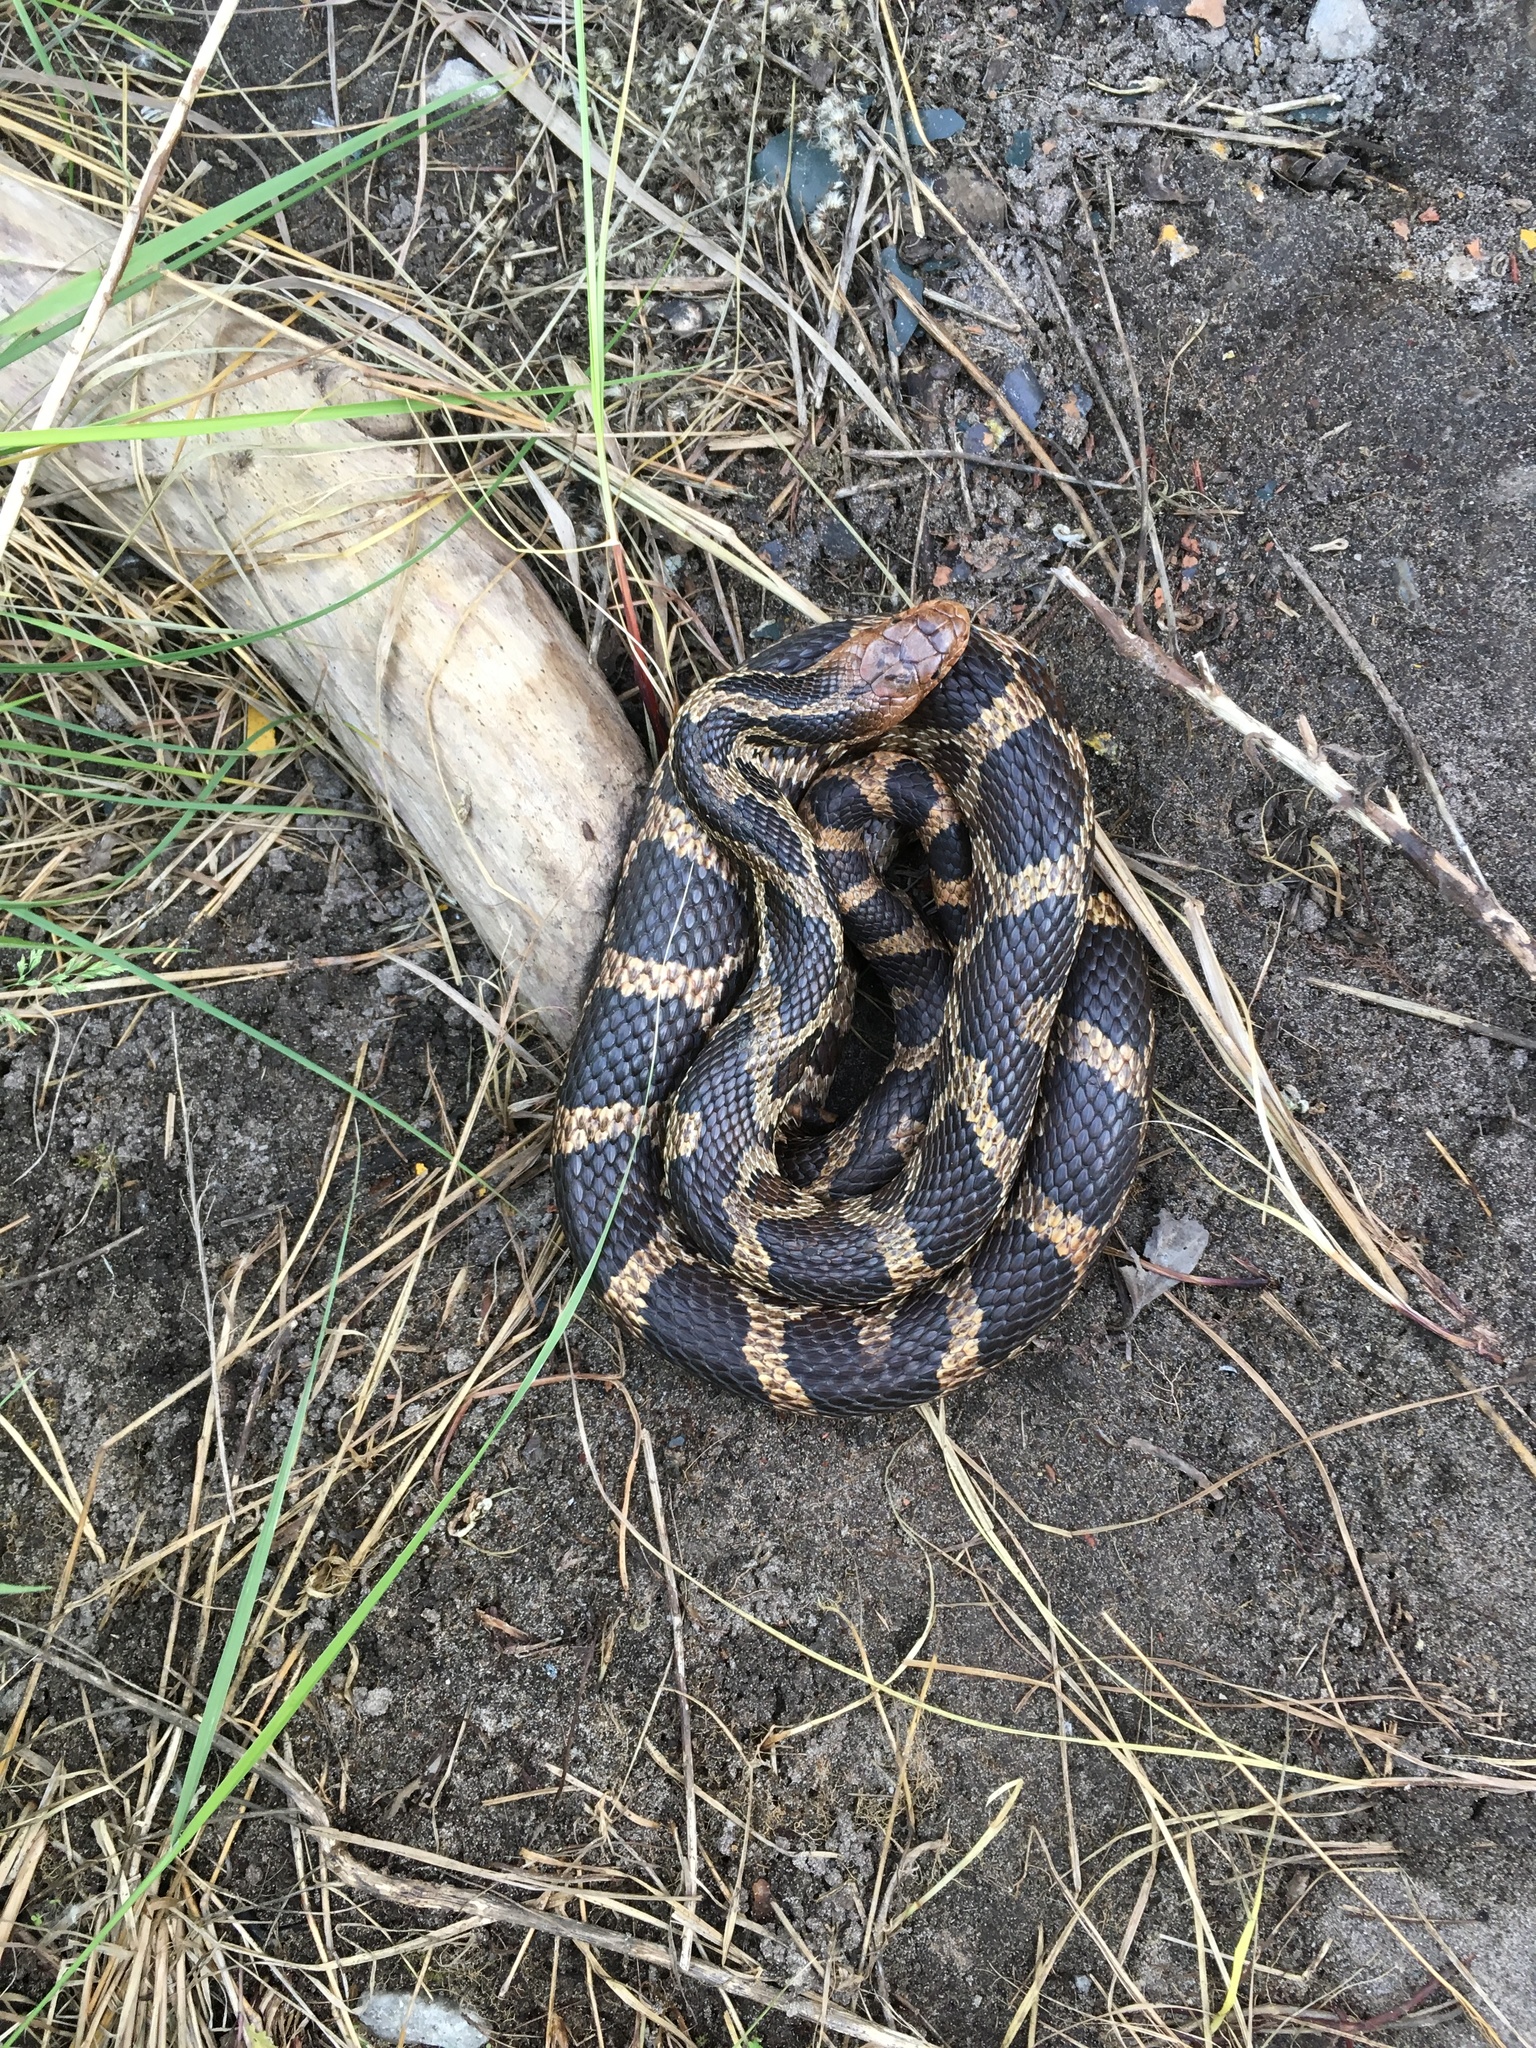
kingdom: Animalia
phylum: Chordata
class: Squamata
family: Colubridae
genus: Pantherophis
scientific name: Pantherophis vulpinus
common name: Eastern fox snake
